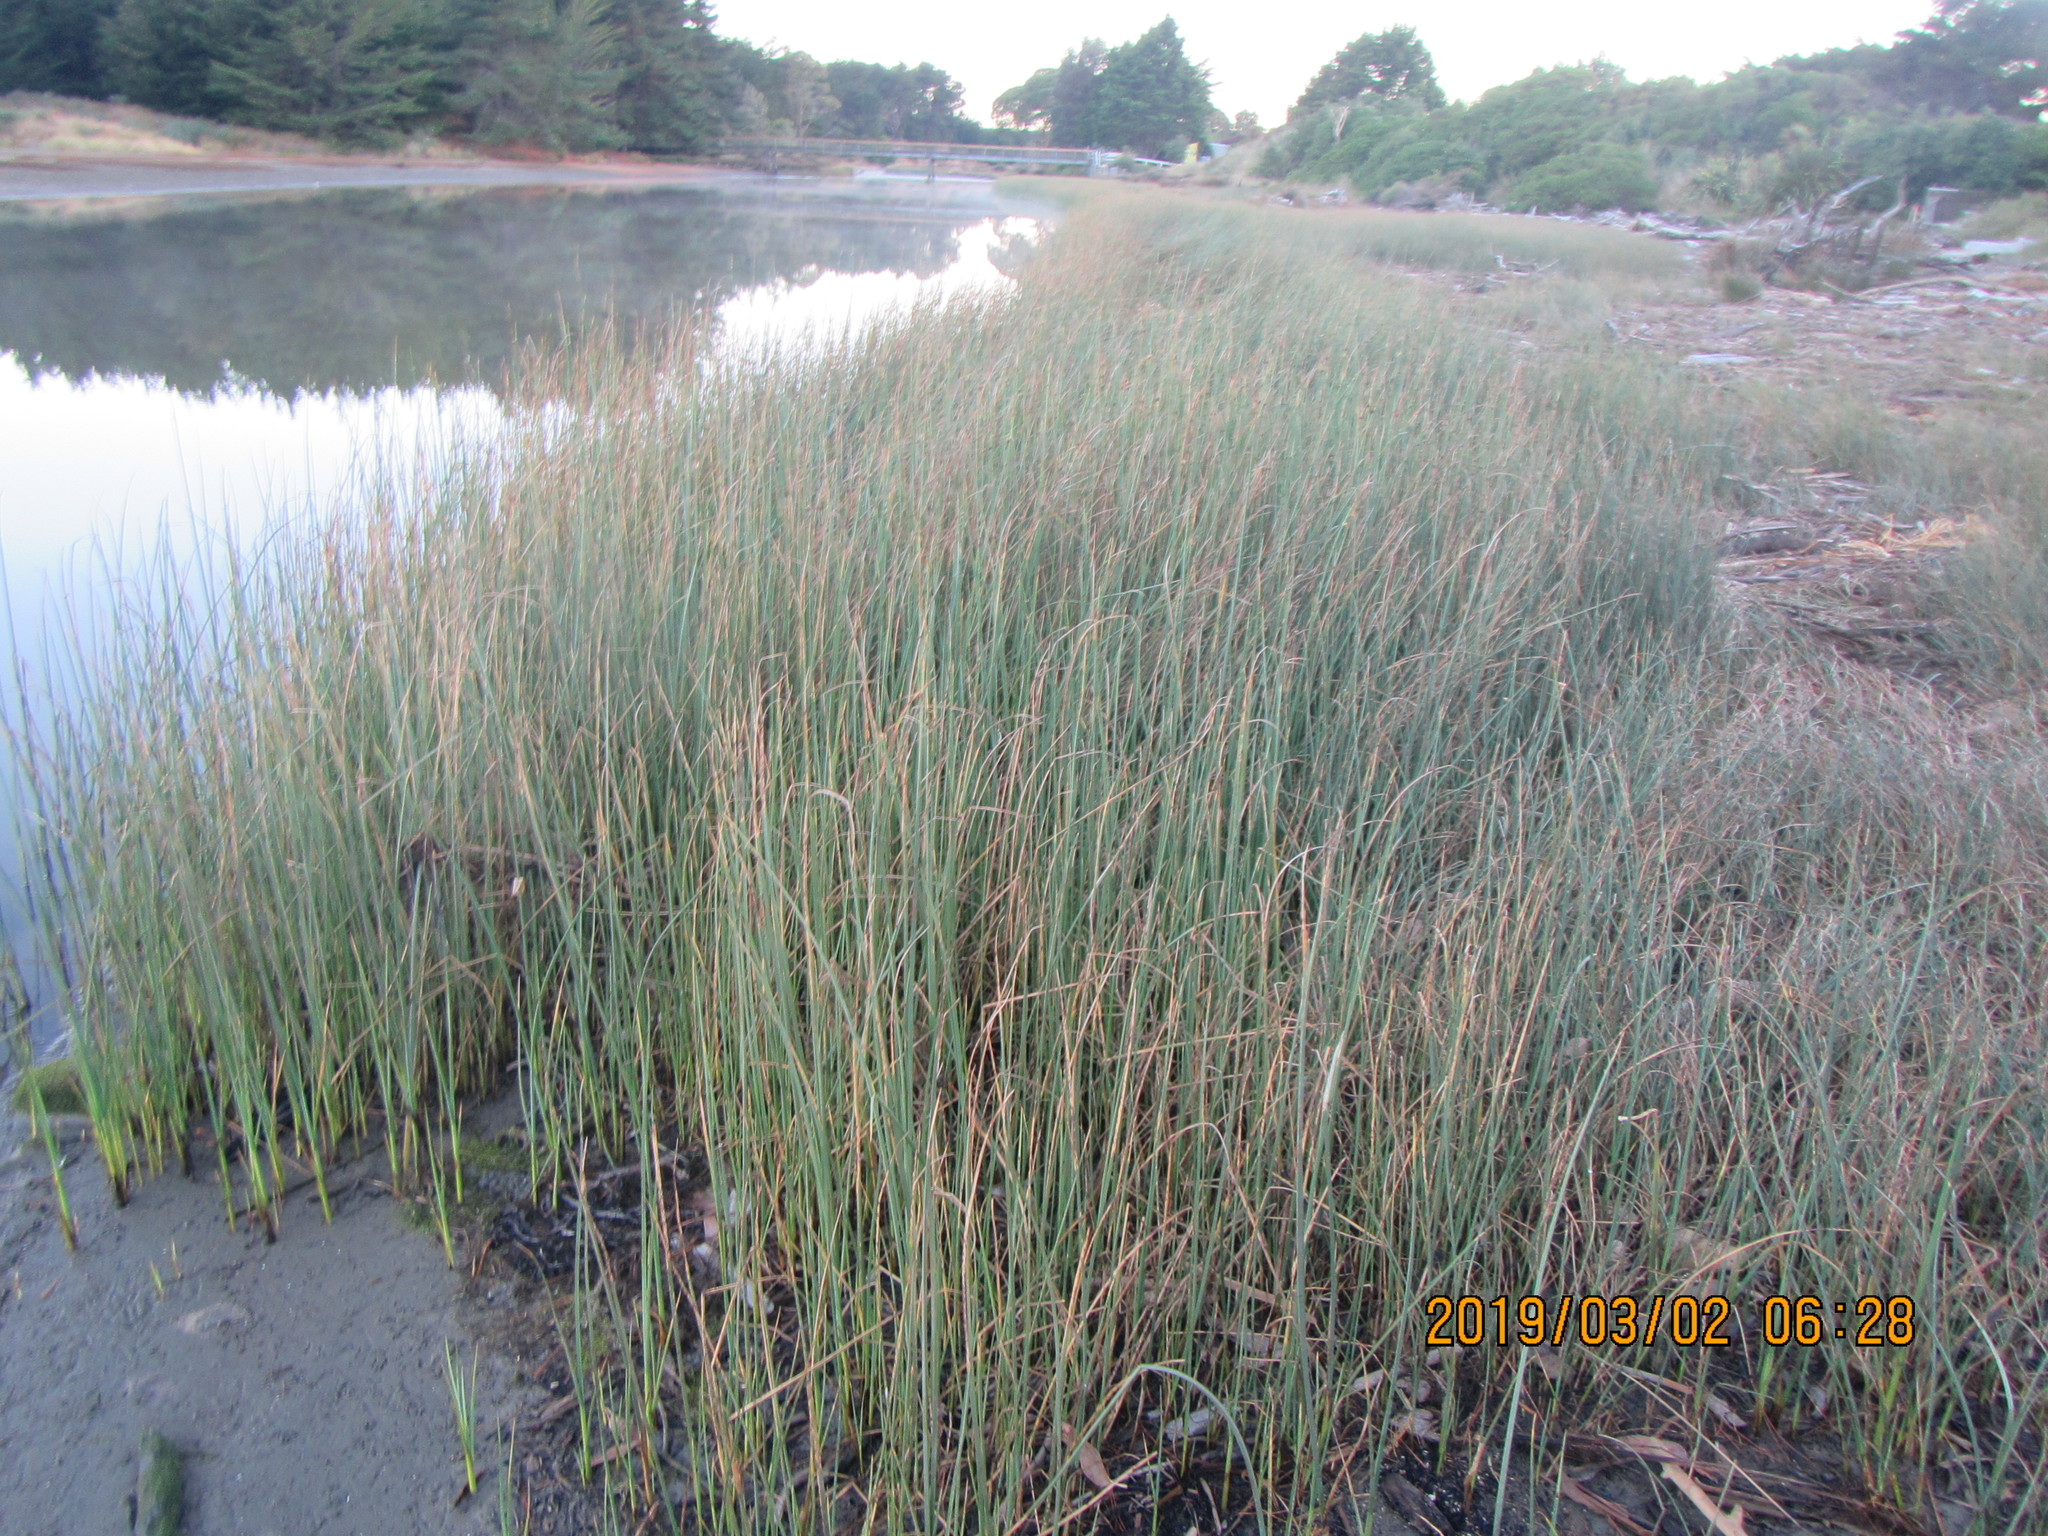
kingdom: Plantae
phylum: Tracheophyta
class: Liliopsida
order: Poales
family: Cyperaceae
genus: Schoenoplectus
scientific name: Schoenoplectus pungens
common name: Sharp club-rush
